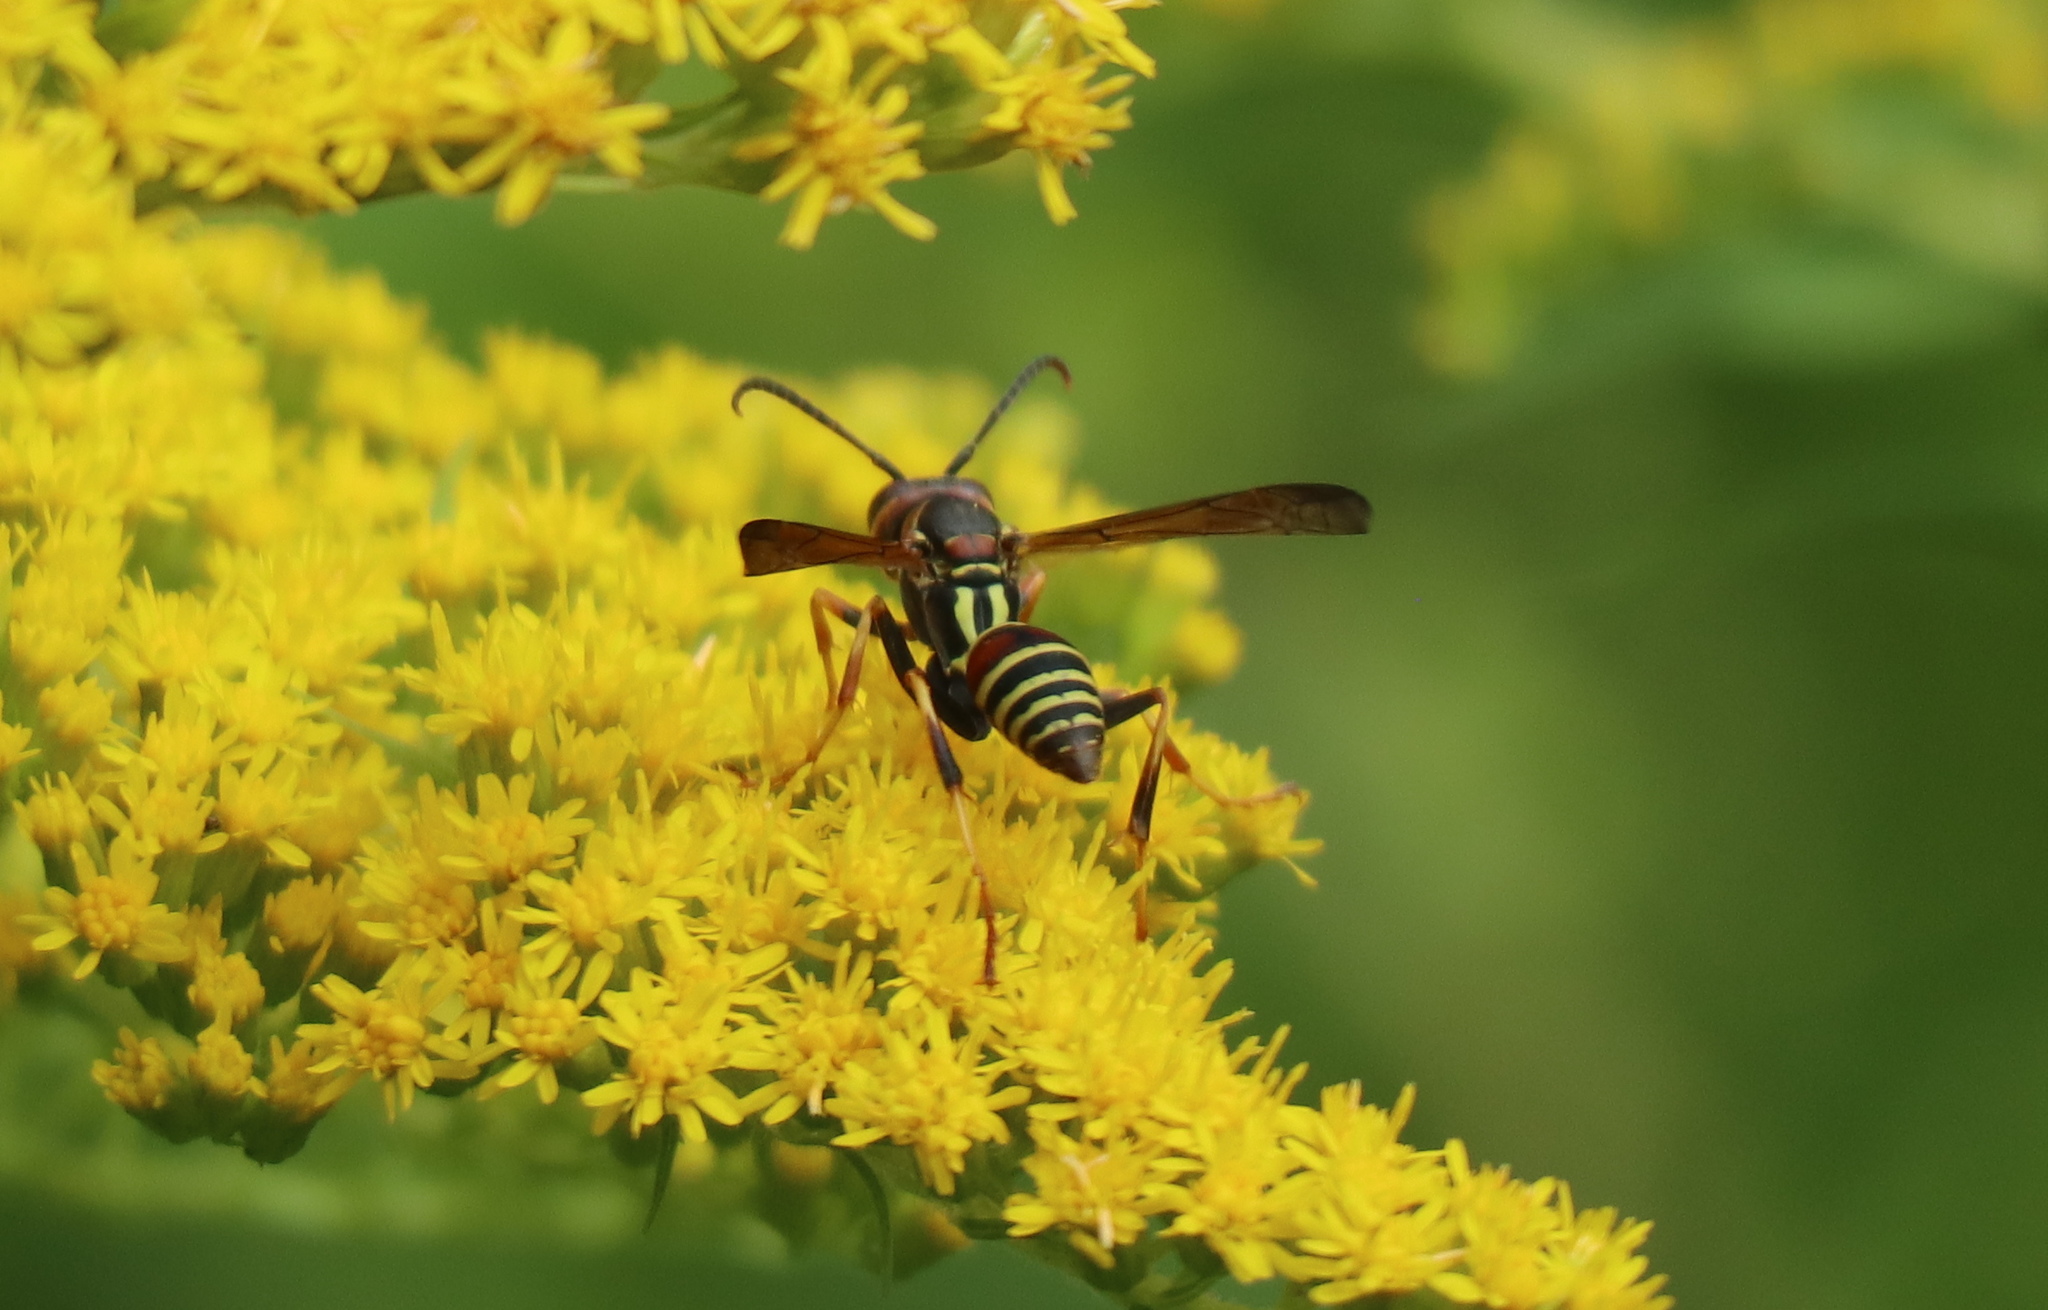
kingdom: Animalia
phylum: Arthropoda
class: Insecta
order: Hymenoptera
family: Eumenidae
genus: Polistes
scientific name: Polistes dorsalis
